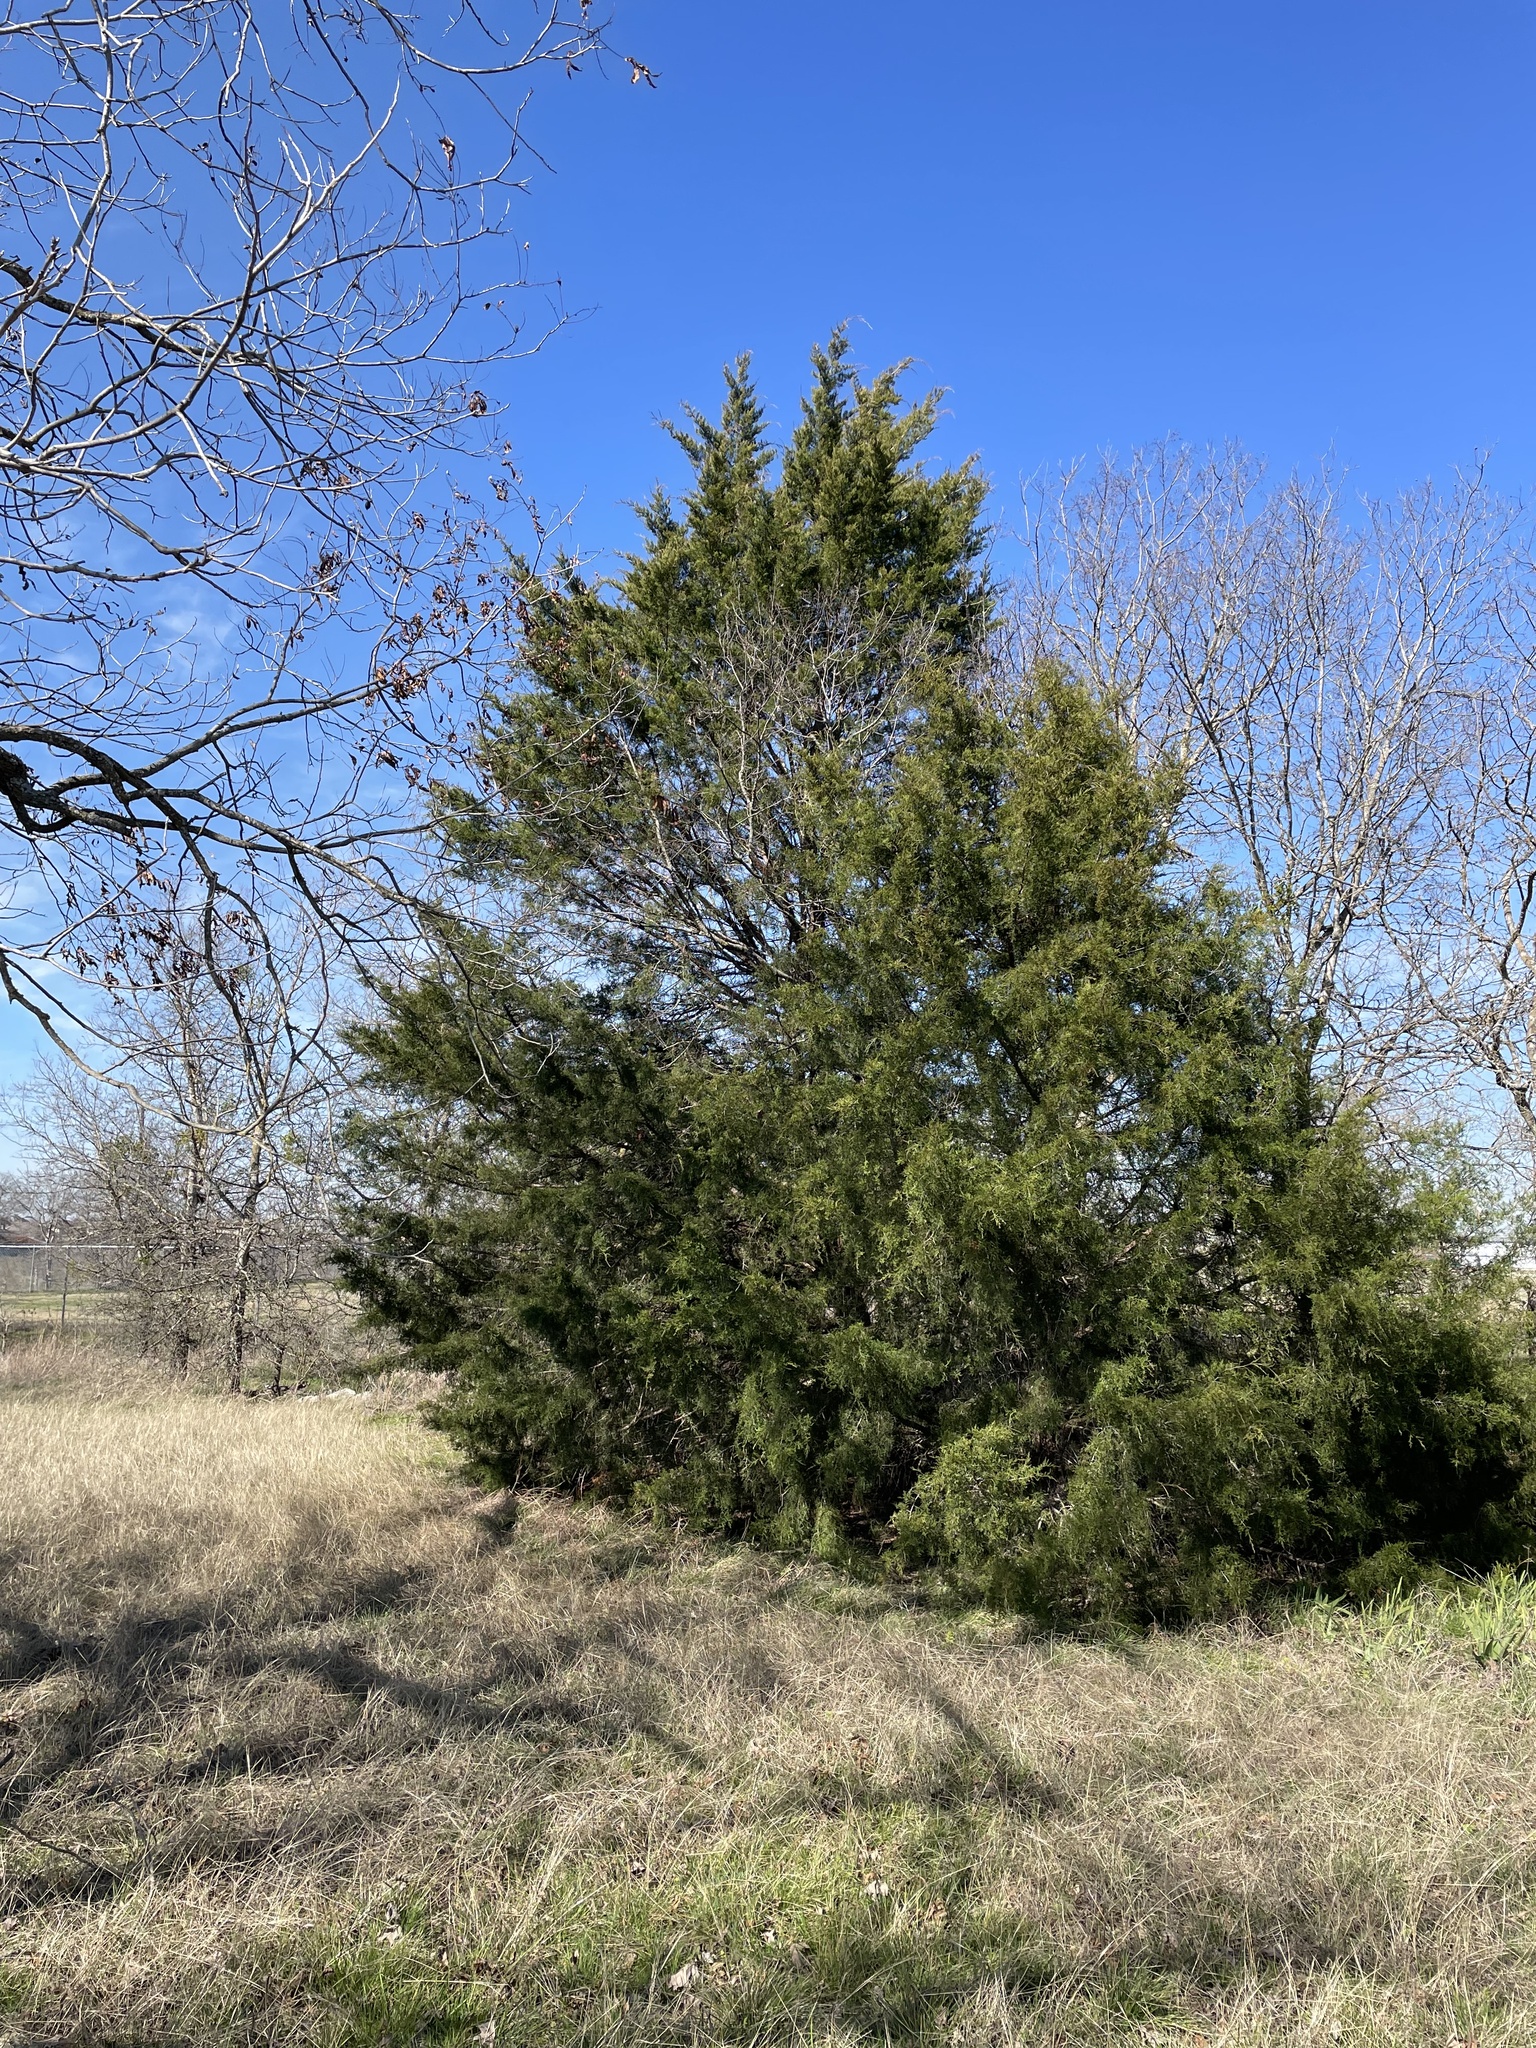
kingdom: Plantae
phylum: Tracheophyta
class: Pinopsida
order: Pinales
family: Cupressaceae
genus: Juniperus
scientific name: Juniperus virginiana
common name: Red juniper
